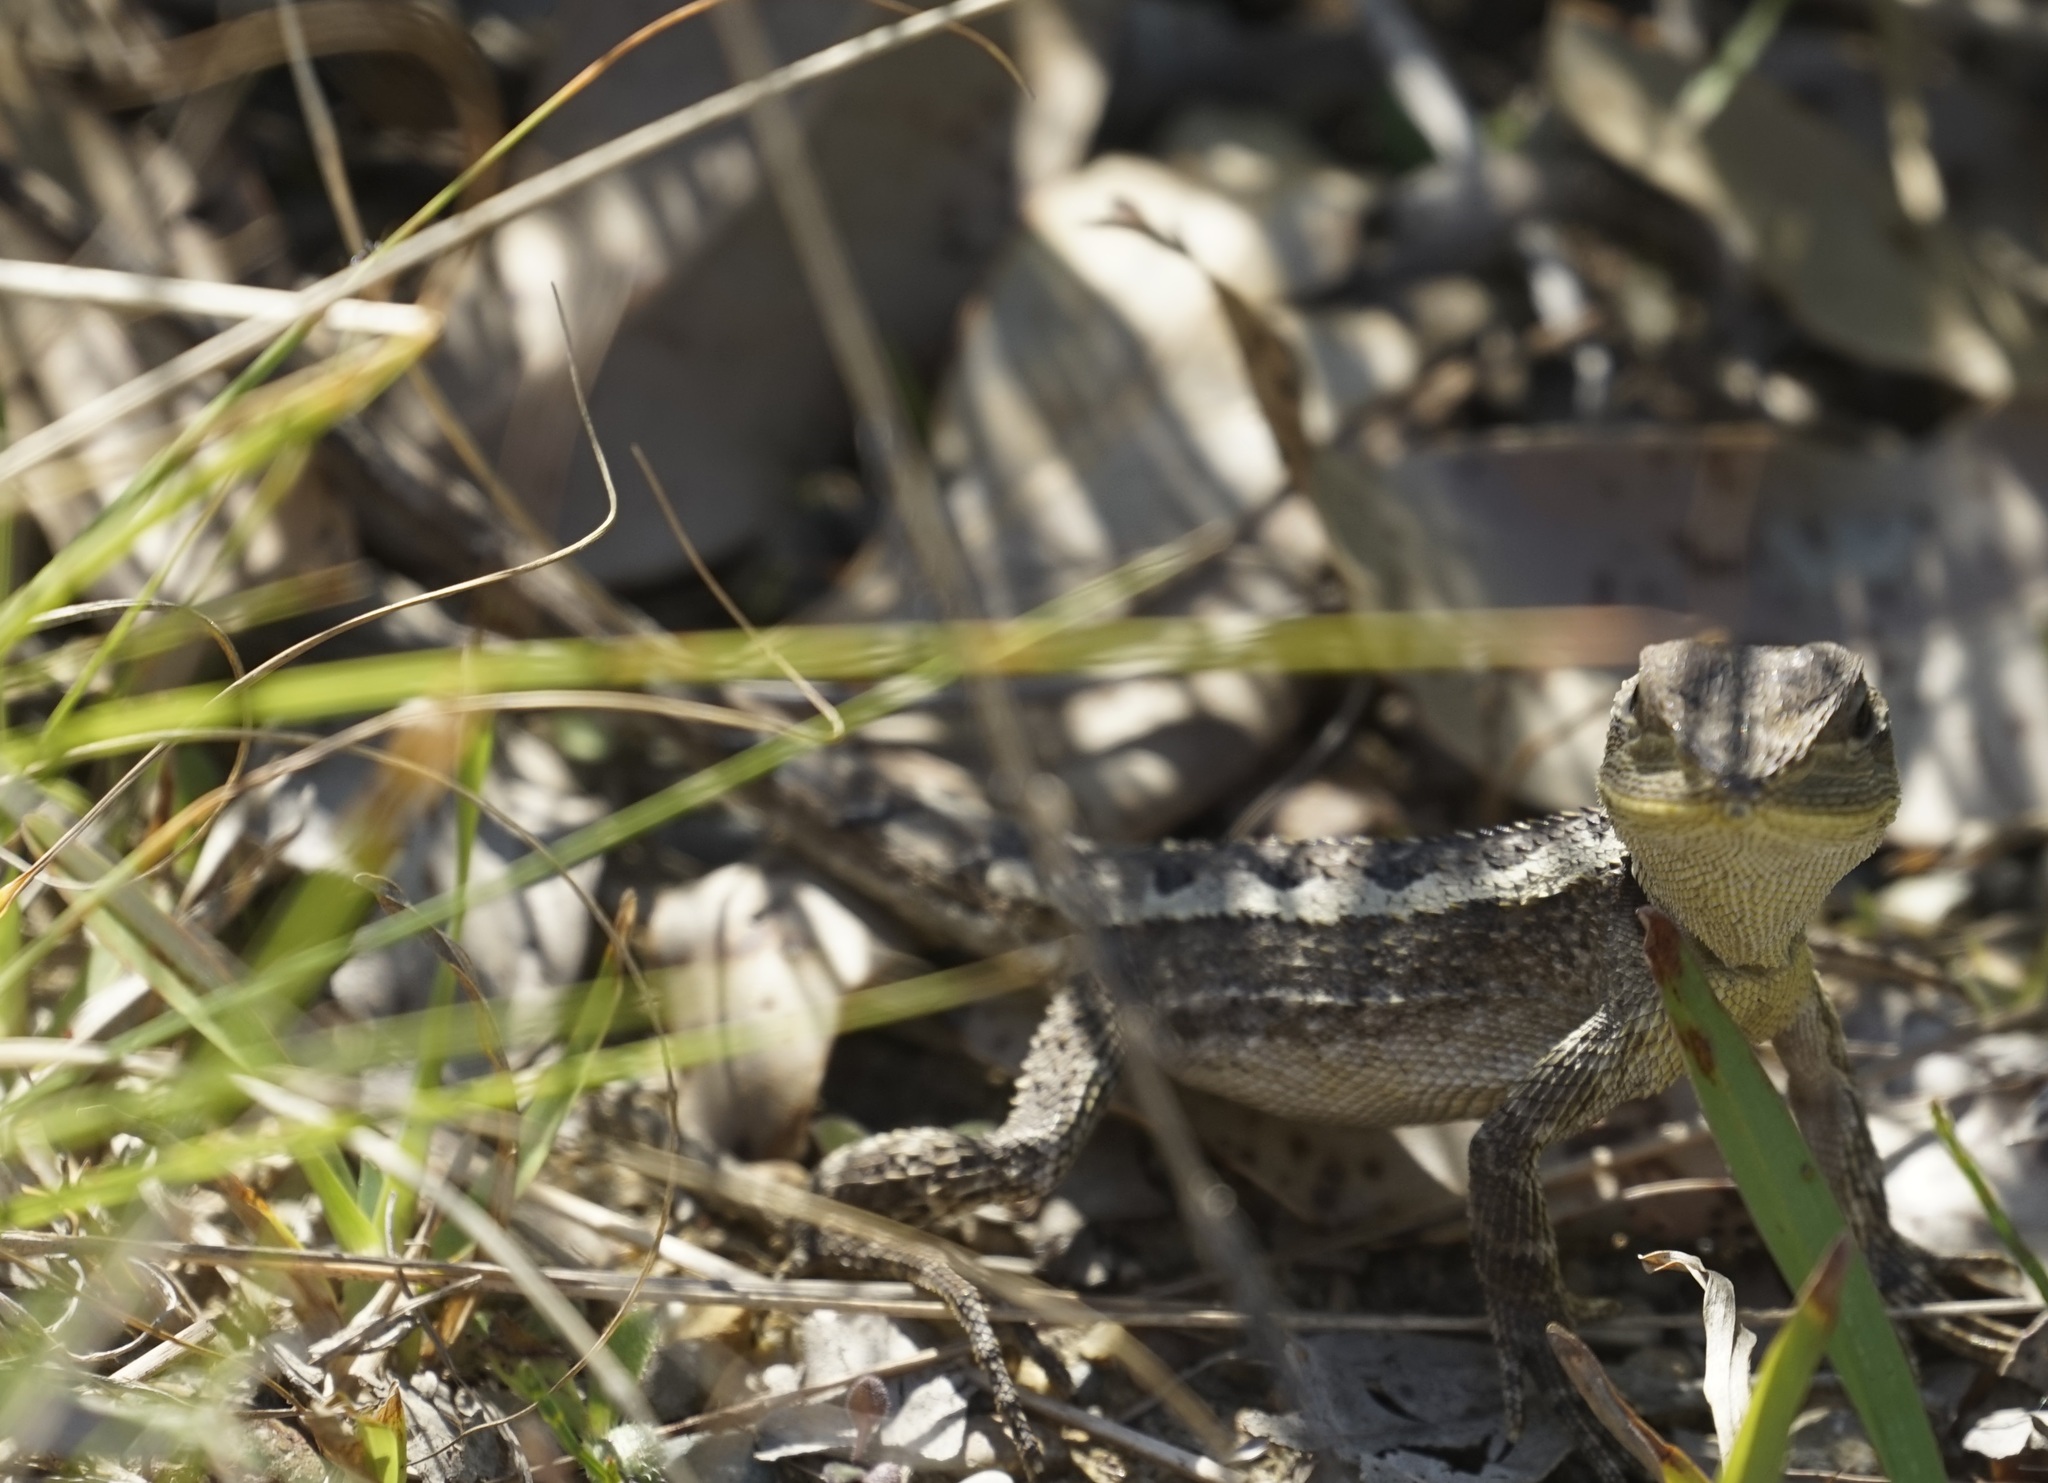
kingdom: Animalia
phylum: Chordata
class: Squamata
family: Agamidae
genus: Amphibolurus
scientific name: Amphibolurus muricatus
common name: Jacky lizard
